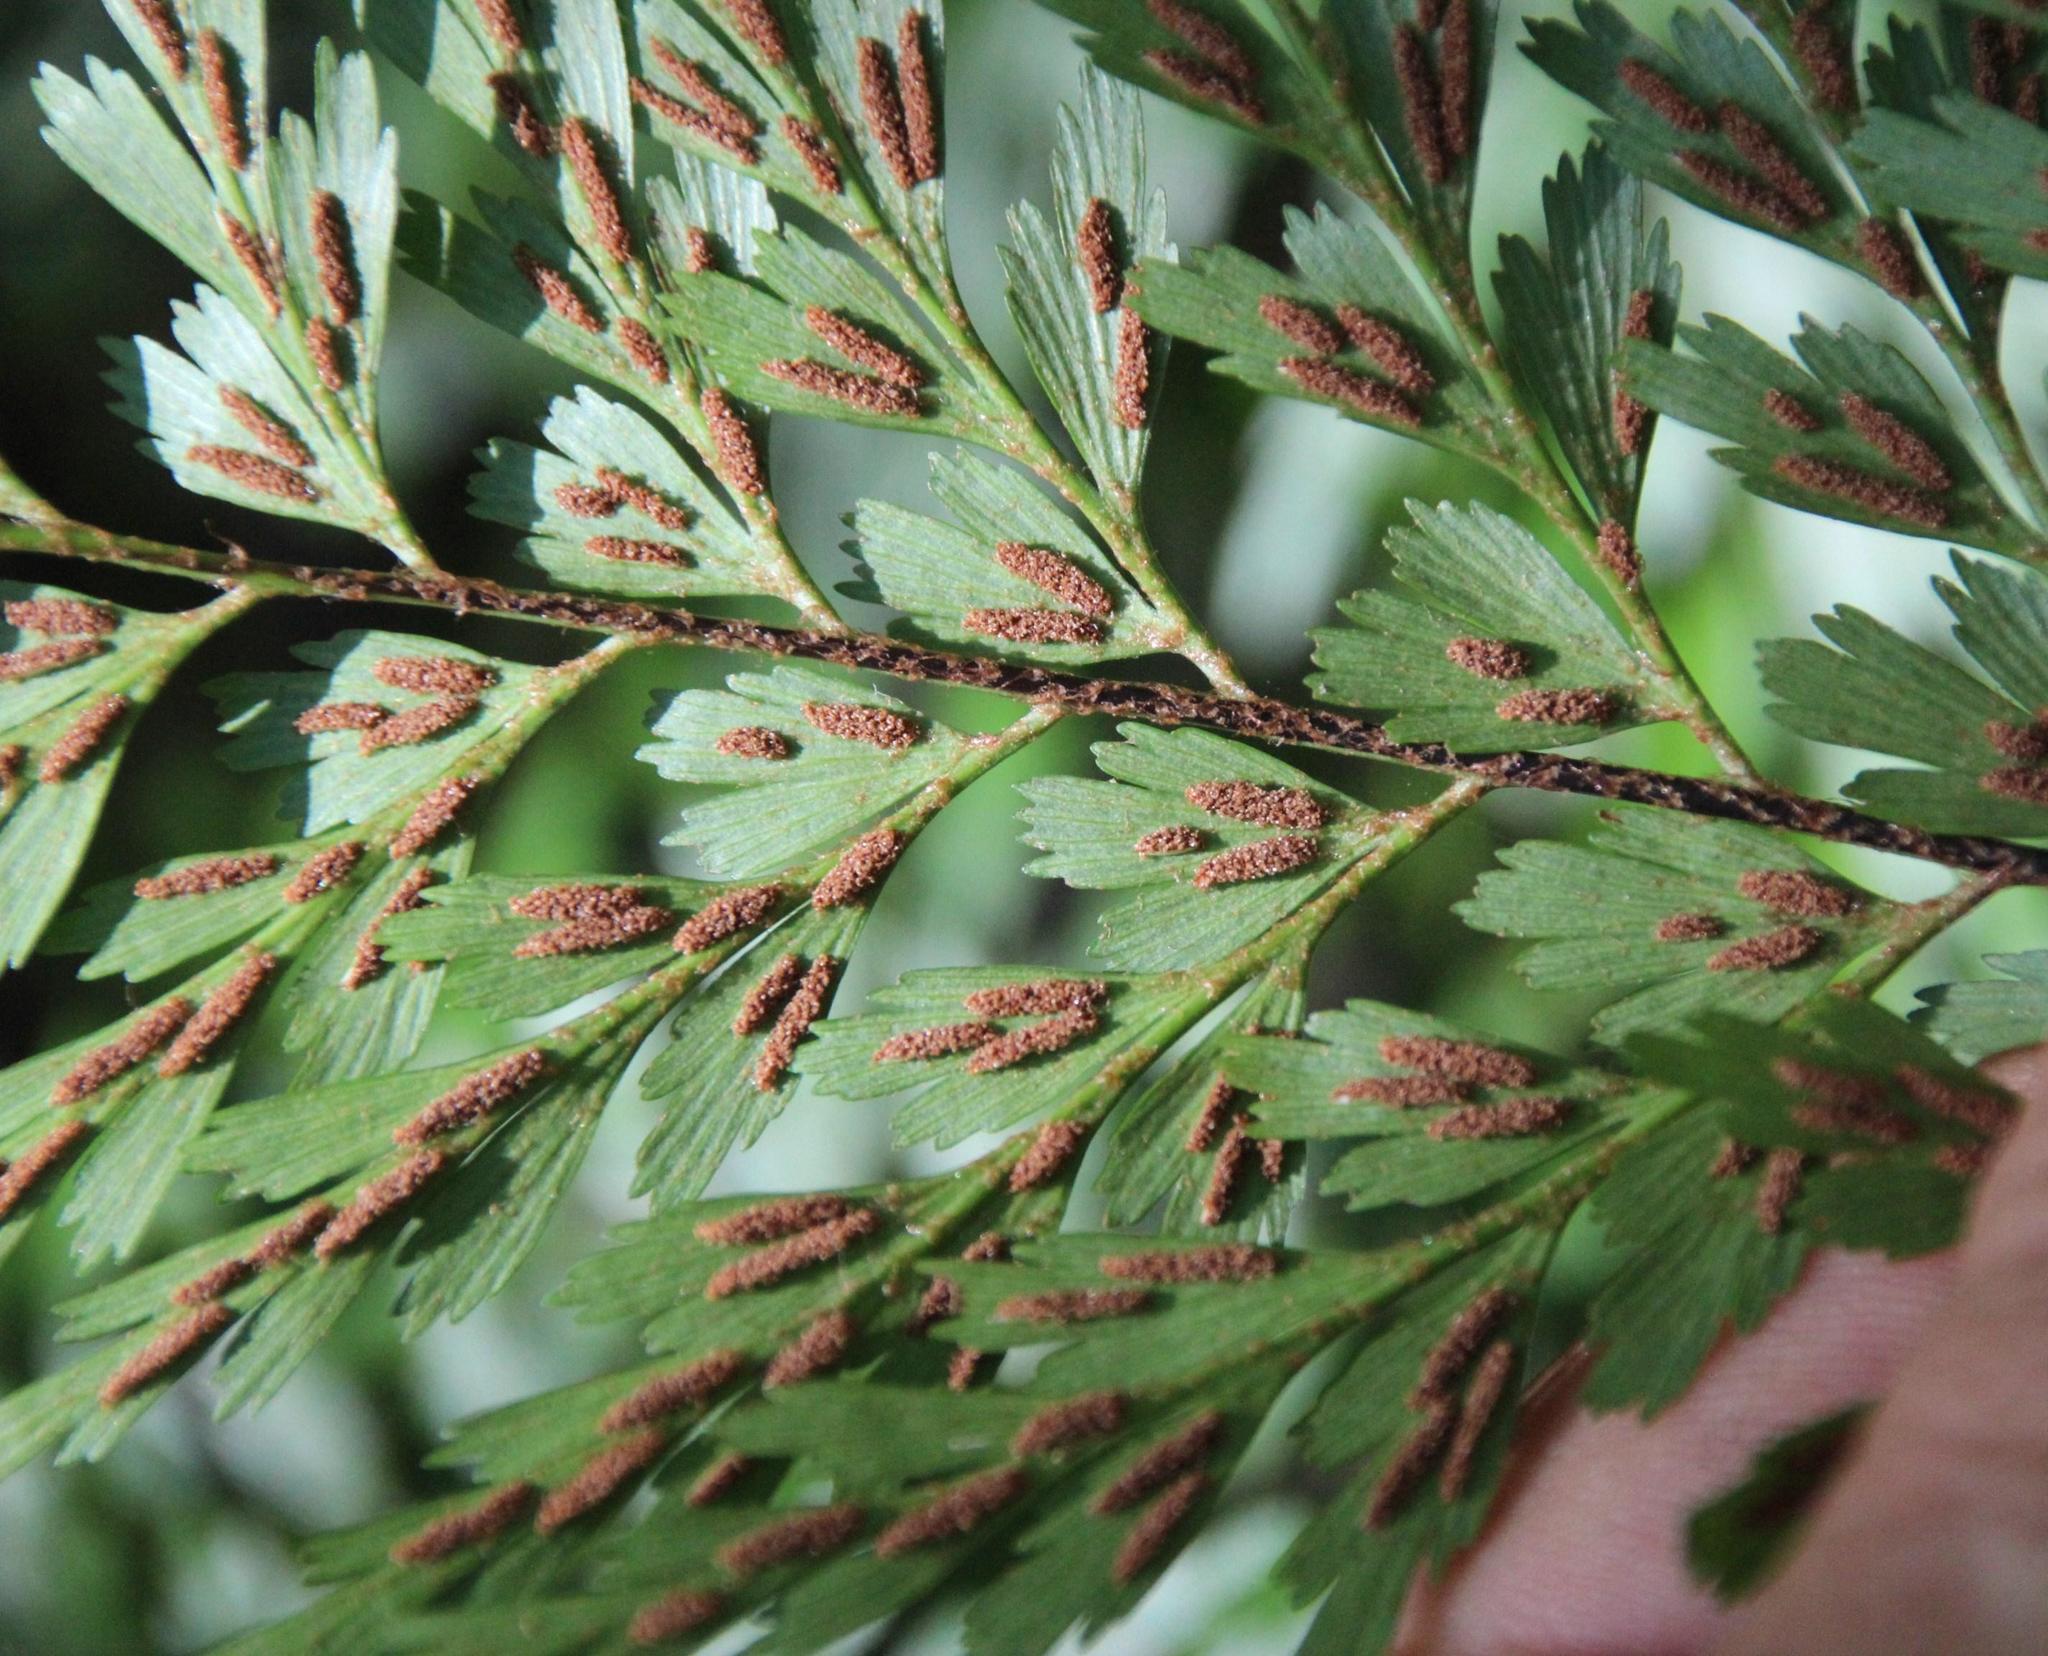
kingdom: Plantae
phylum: Tracheophyta
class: Polypodiopsida
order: Polypodiales
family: Aspleniaceae
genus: Asplenium
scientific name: Asplenium aethiopicum
